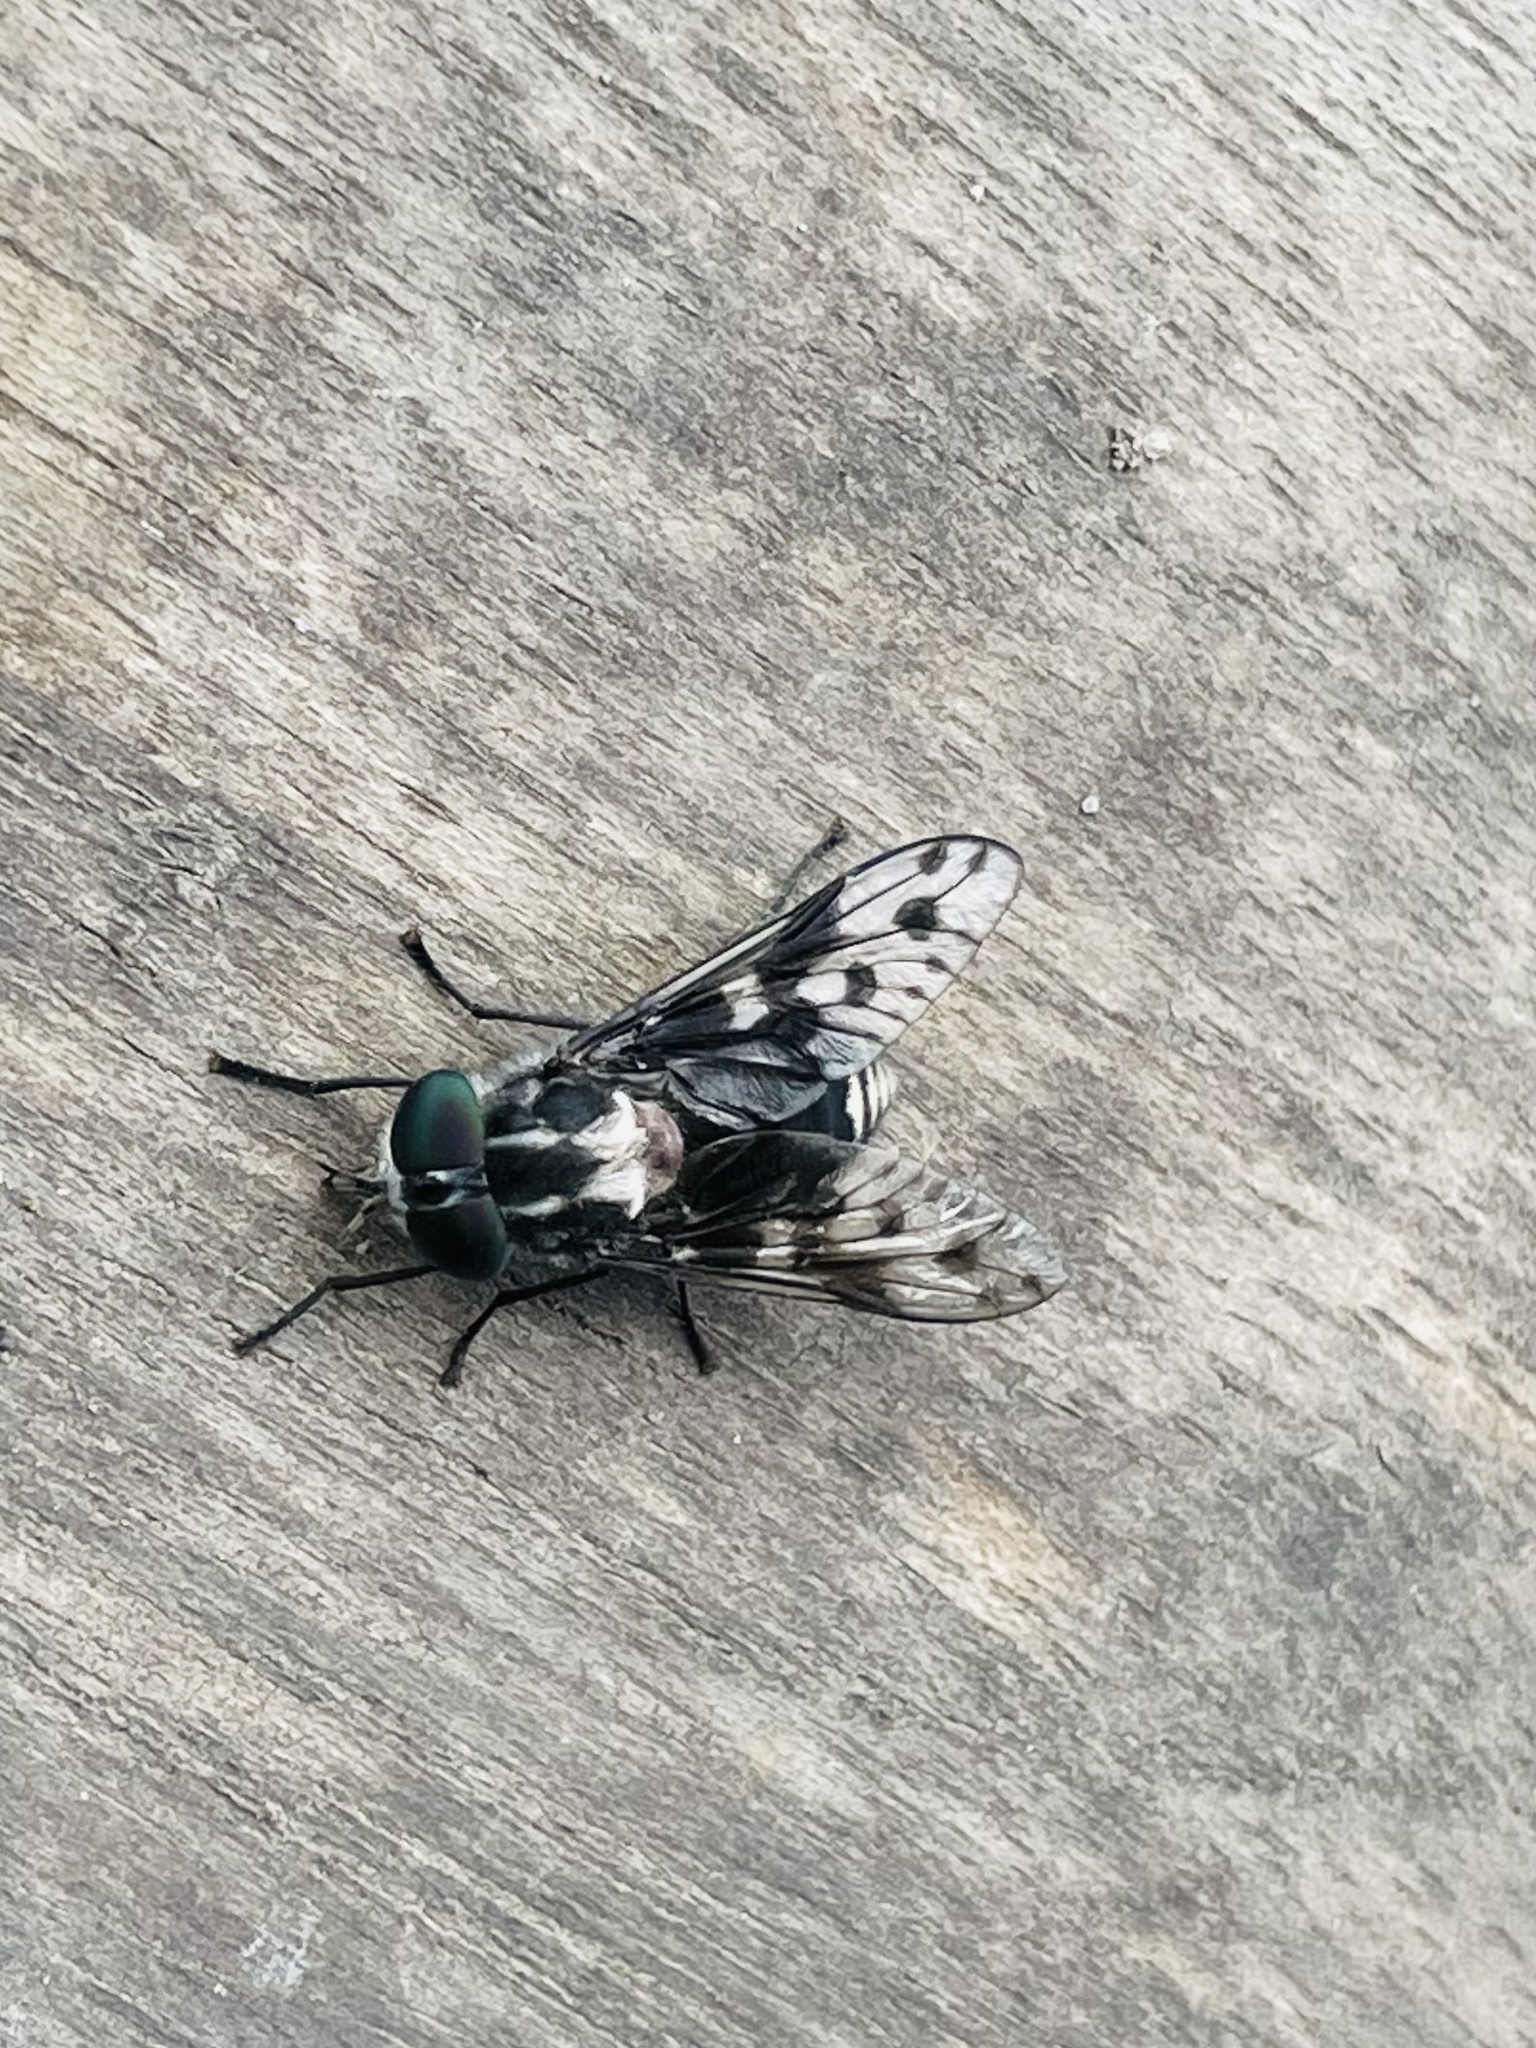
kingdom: Animalia
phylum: Arthropoda
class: Insecta
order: Diptera
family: Tabanidae
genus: Spilotabanus
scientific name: Spilotabanus multiguttatus
